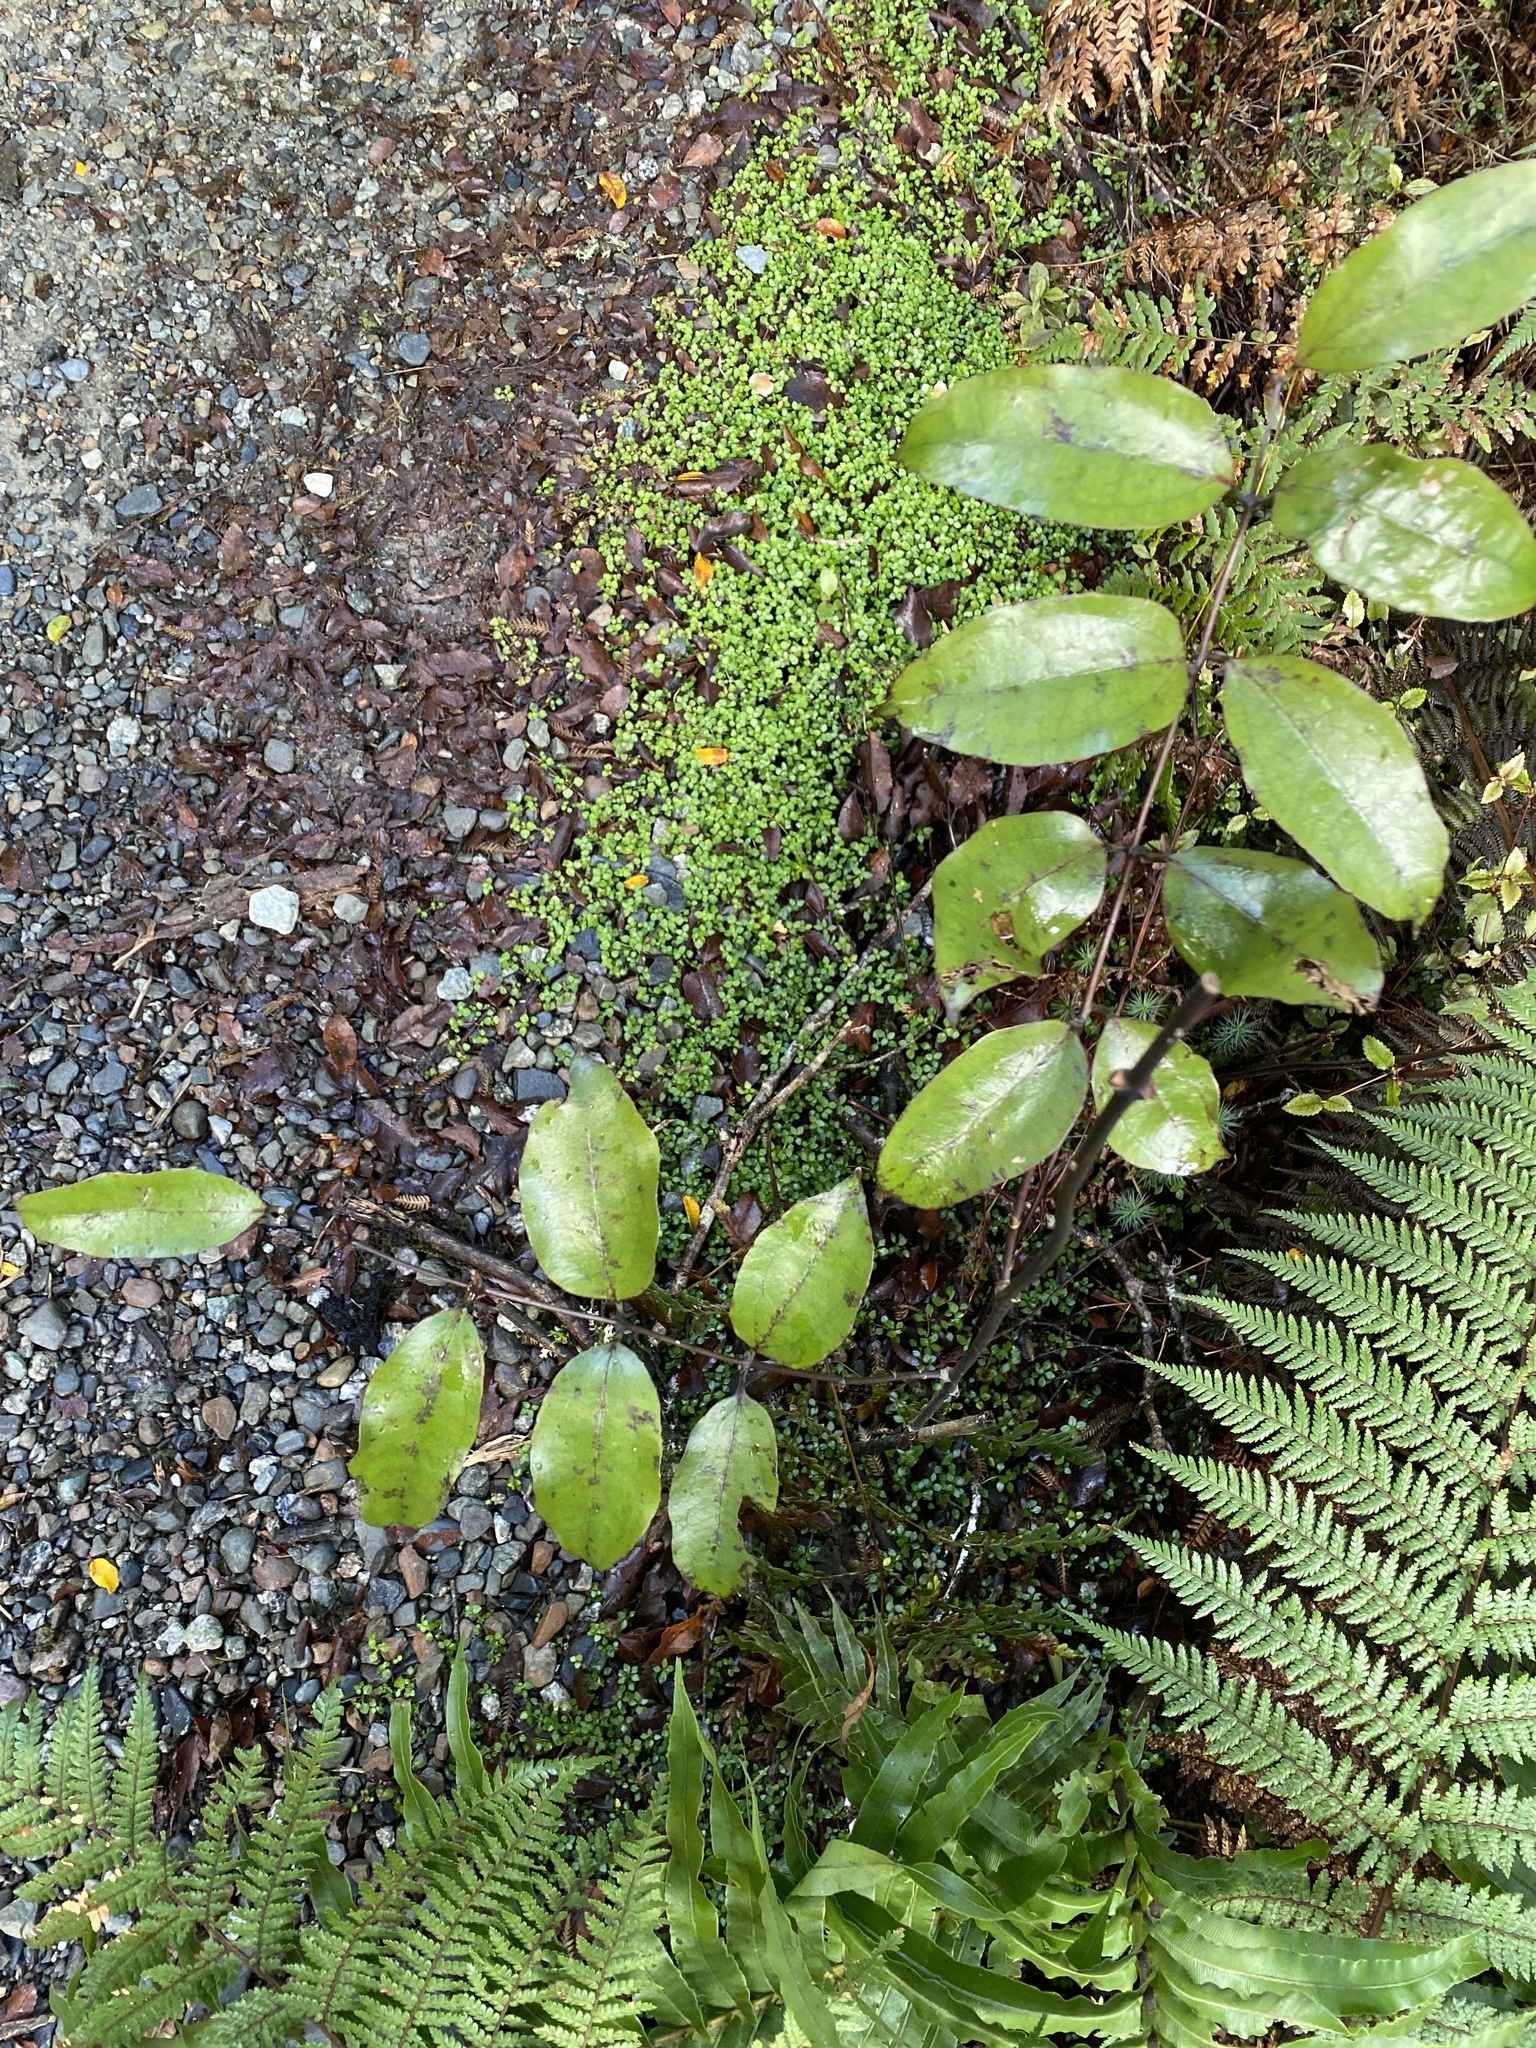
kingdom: Plantae
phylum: Tracheophyta
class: Liliopsida
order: Liliales
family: Ripogonaceae
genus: Ripogonum
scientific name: Ripogonum scandens
